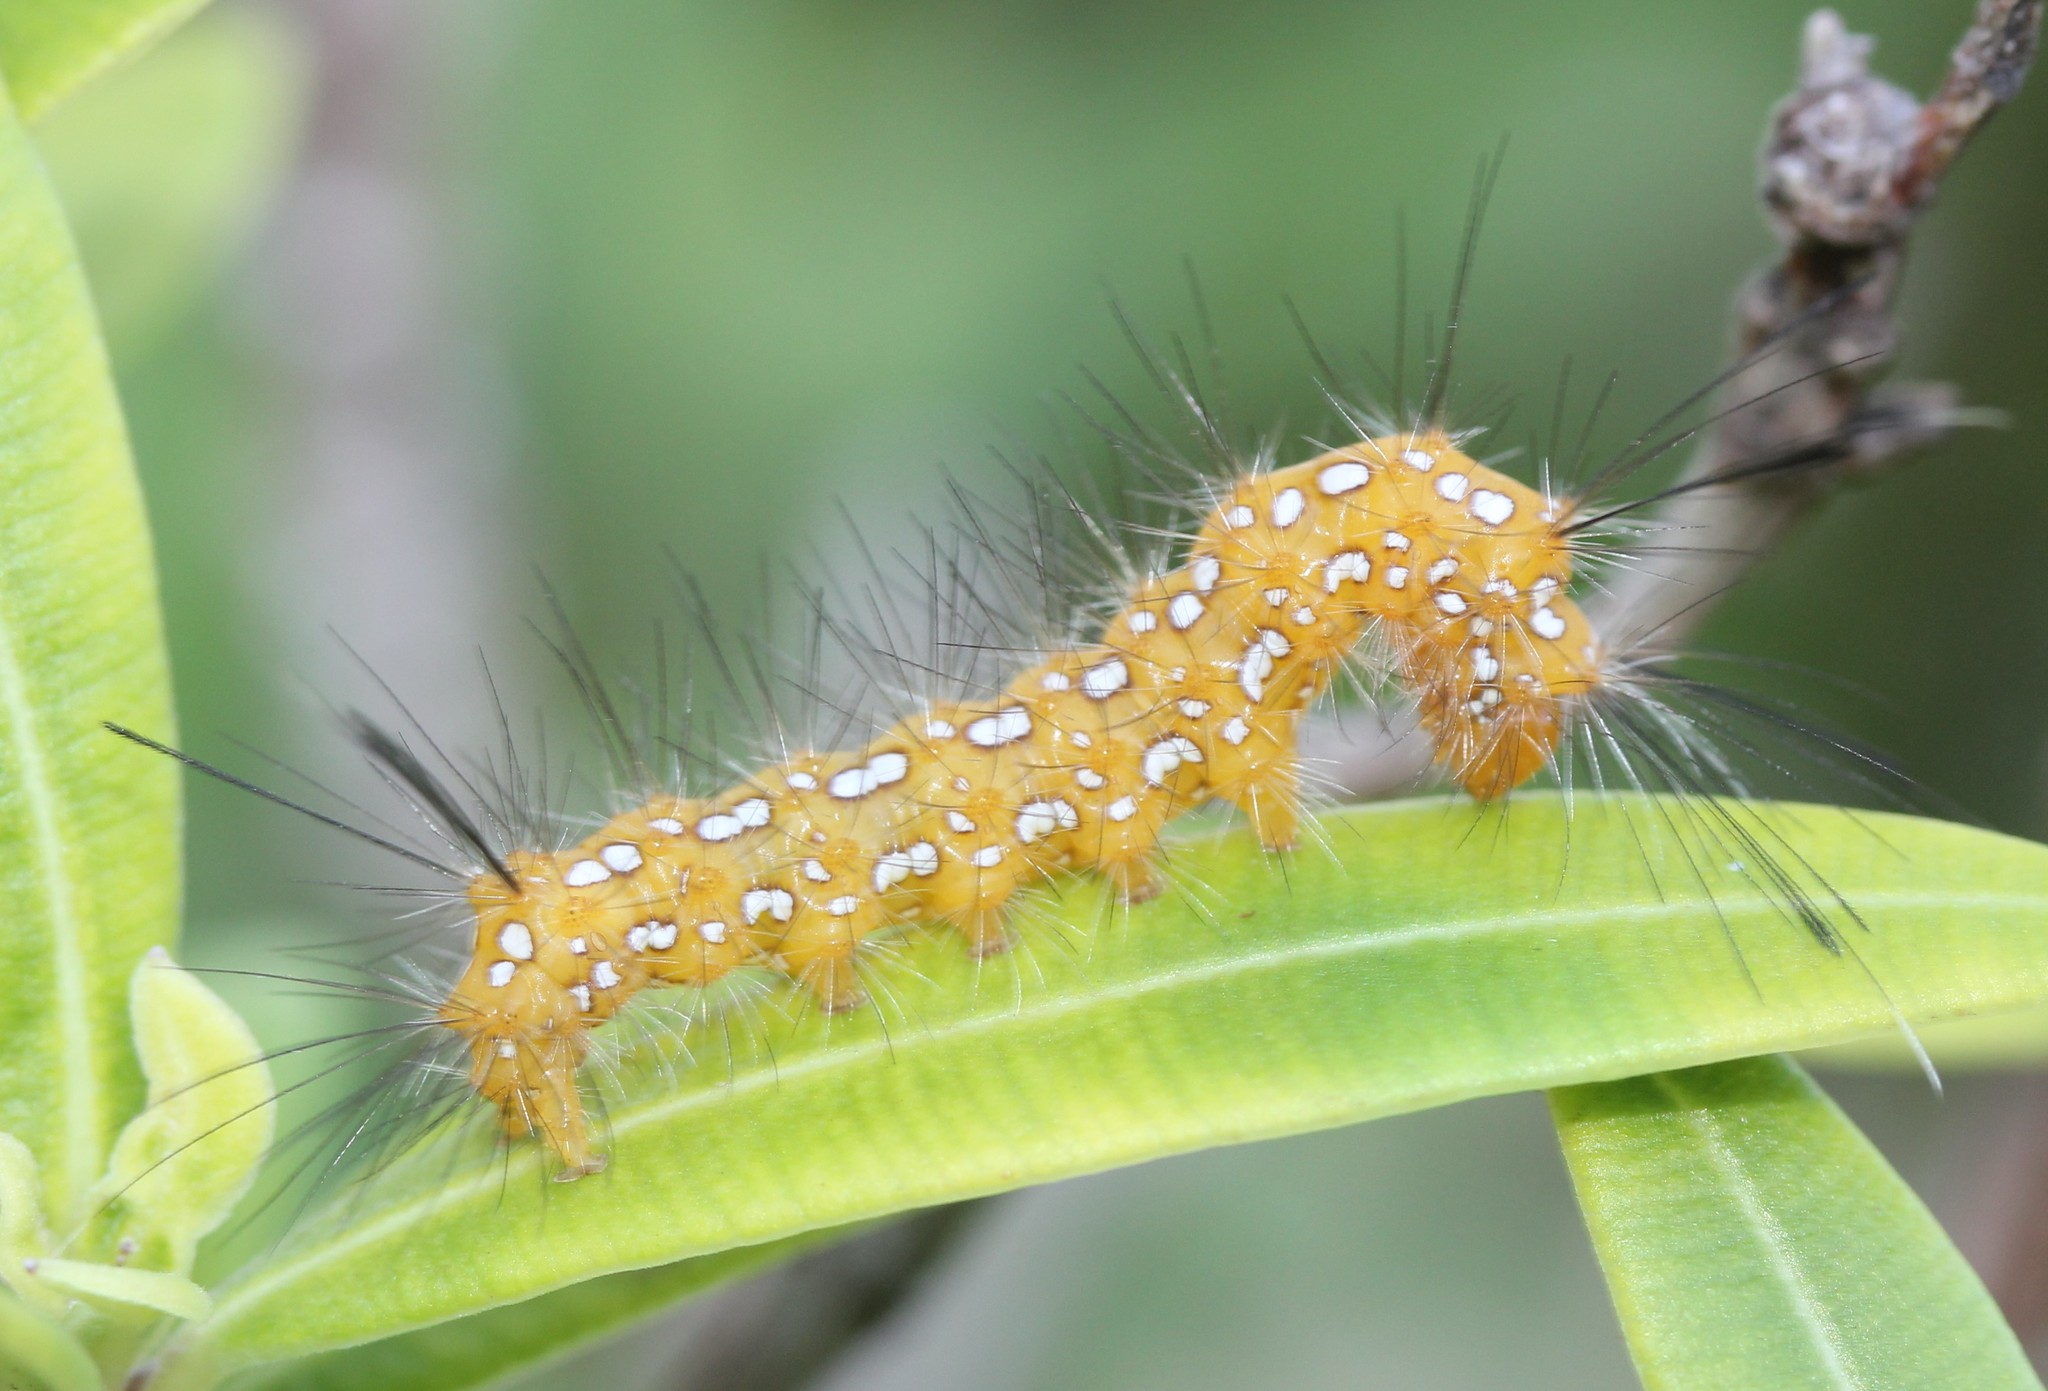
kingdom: Animalia
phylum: Arthropoda
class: Insecta
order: Lepidoptera
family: Erebidae
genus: Empyreuma
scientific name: Empyreuma pugione
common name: Spotted oleander caterpillar moth
